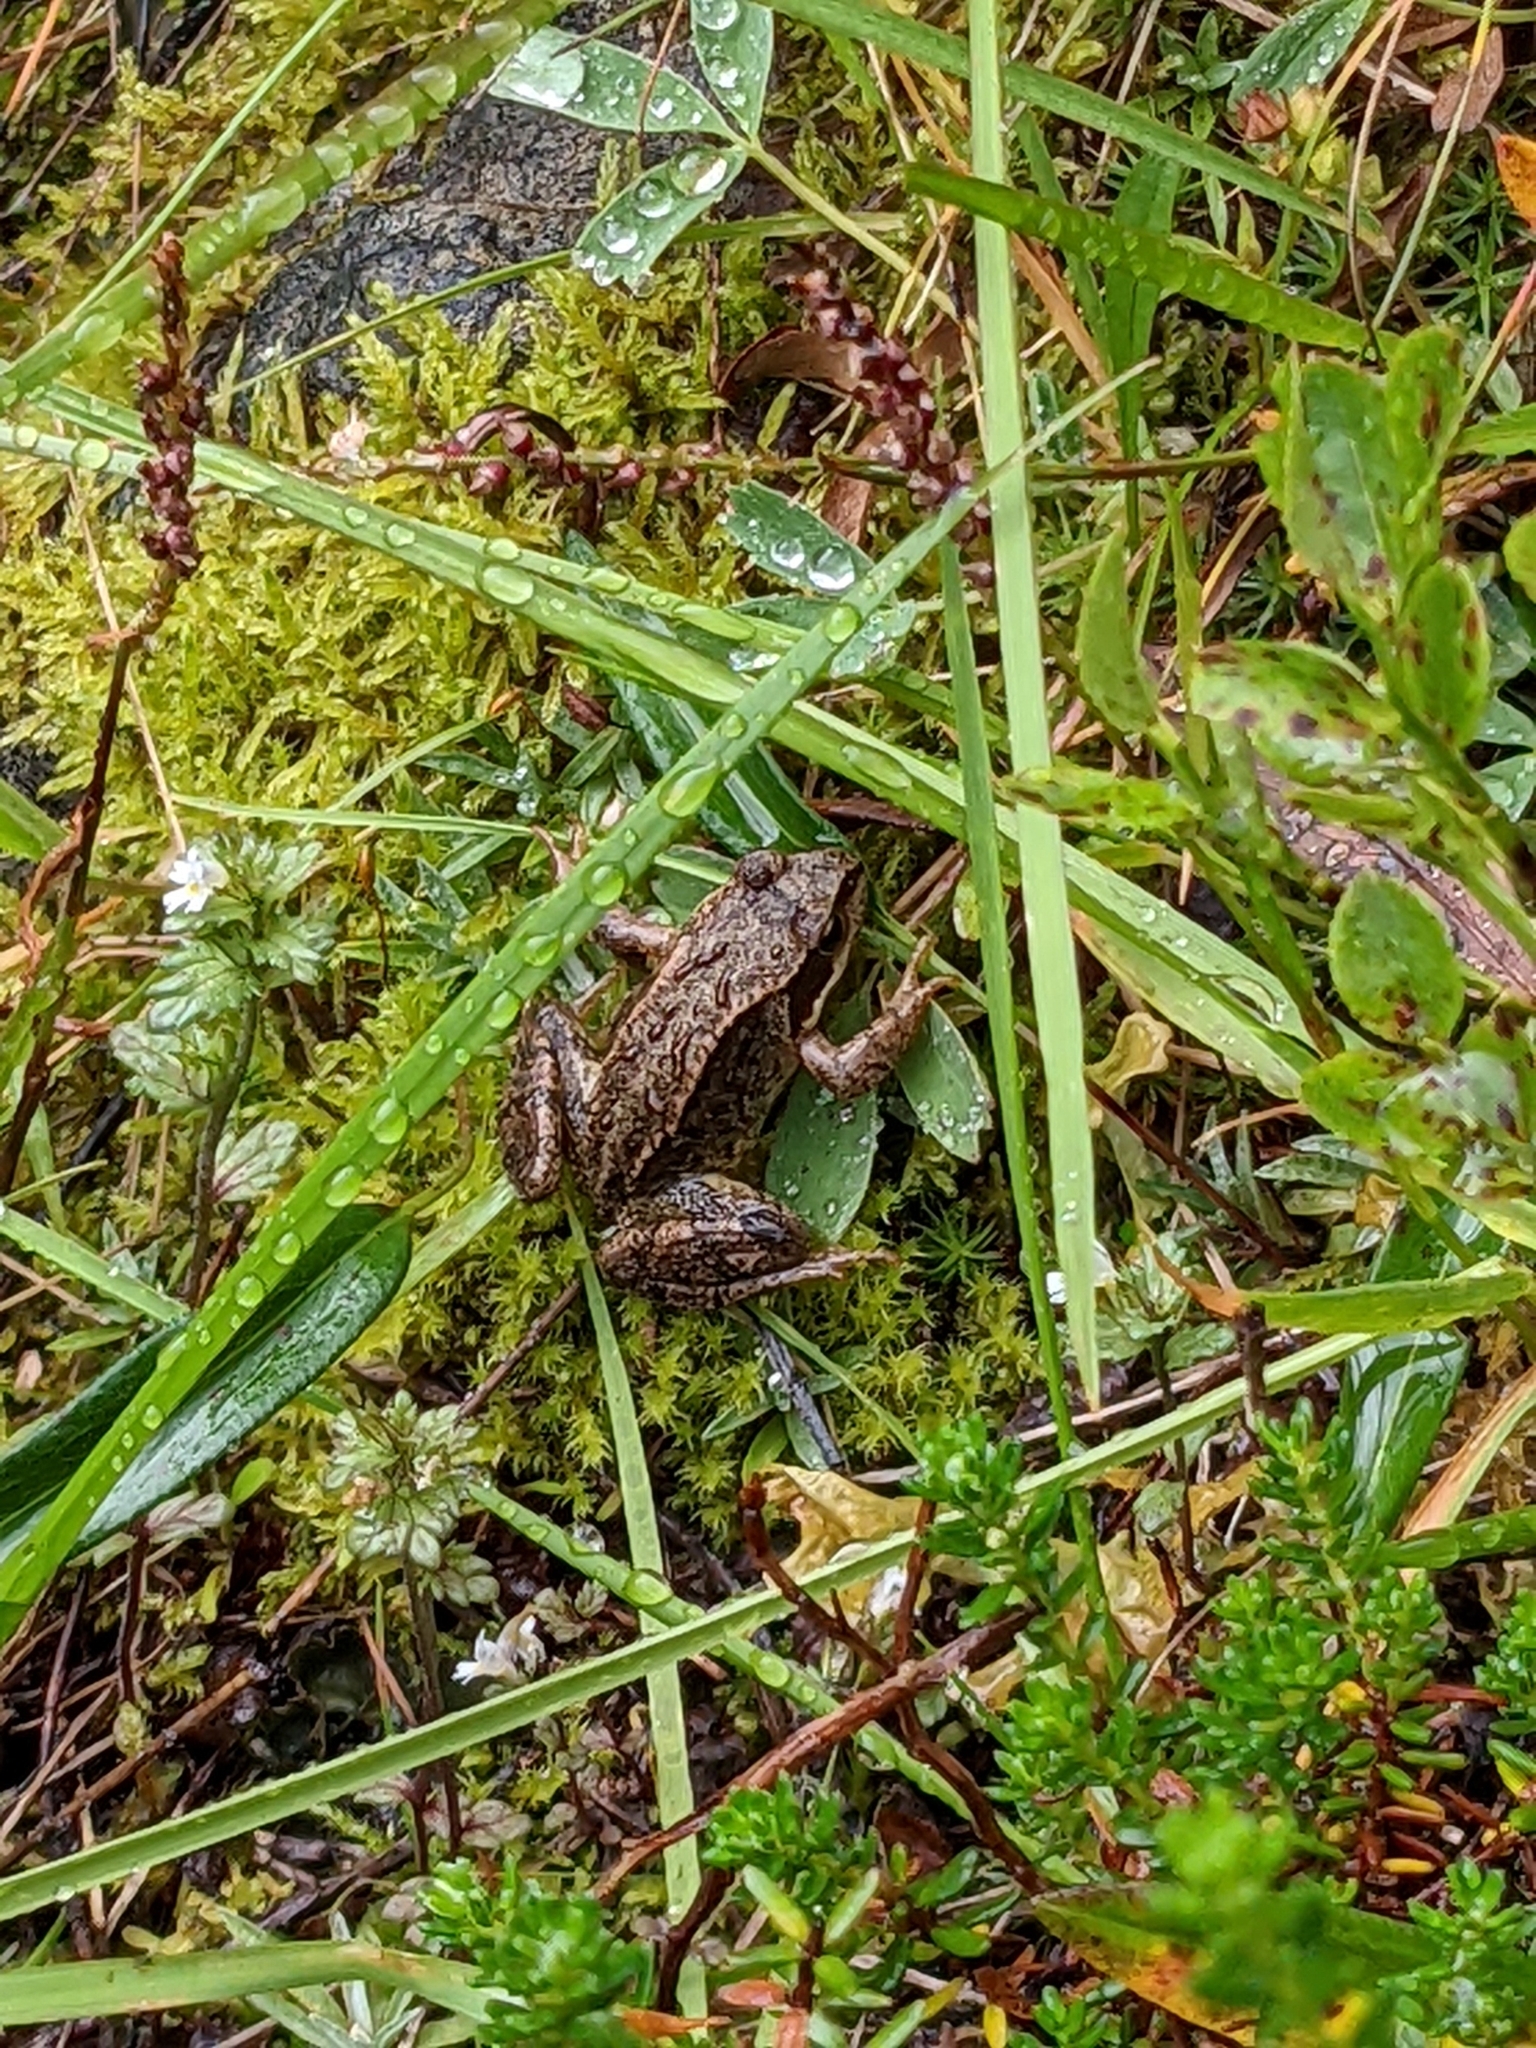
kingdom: Animalia
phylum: Chordata
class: Amphibia
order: Anura
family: Ranidae
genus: Rana
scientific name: Rana temporaria
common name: Common frog
